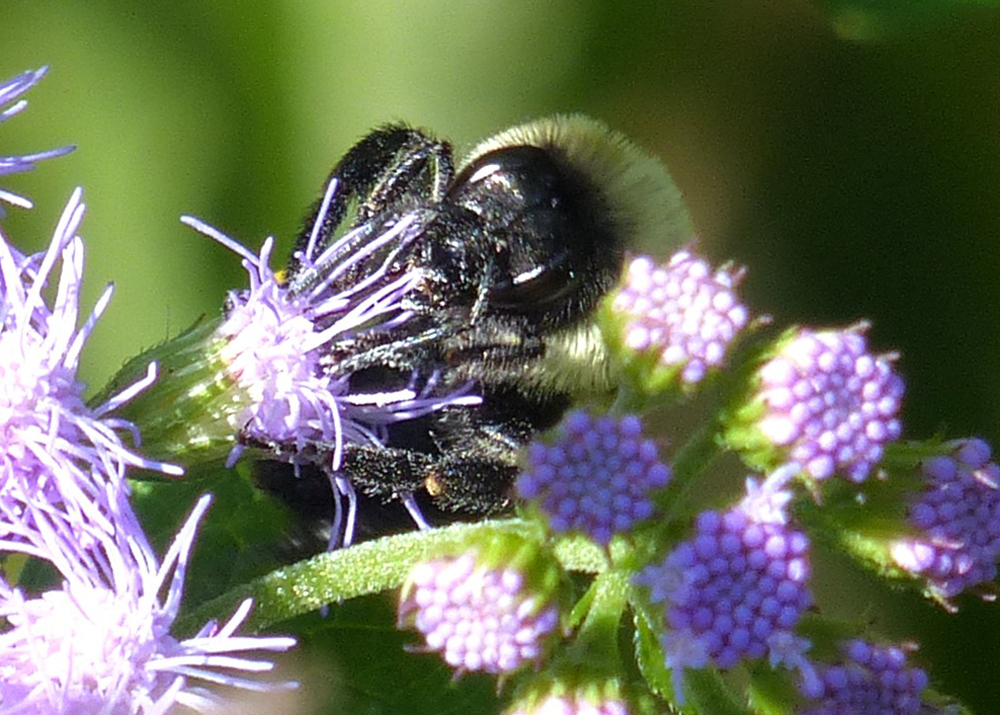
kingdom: Animalia
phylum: Arthropoda
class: Insecta
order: Hymenoptera
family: Apidae
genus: Bombus
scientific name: Bombus impatiens
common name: Common eastern bumble bee
